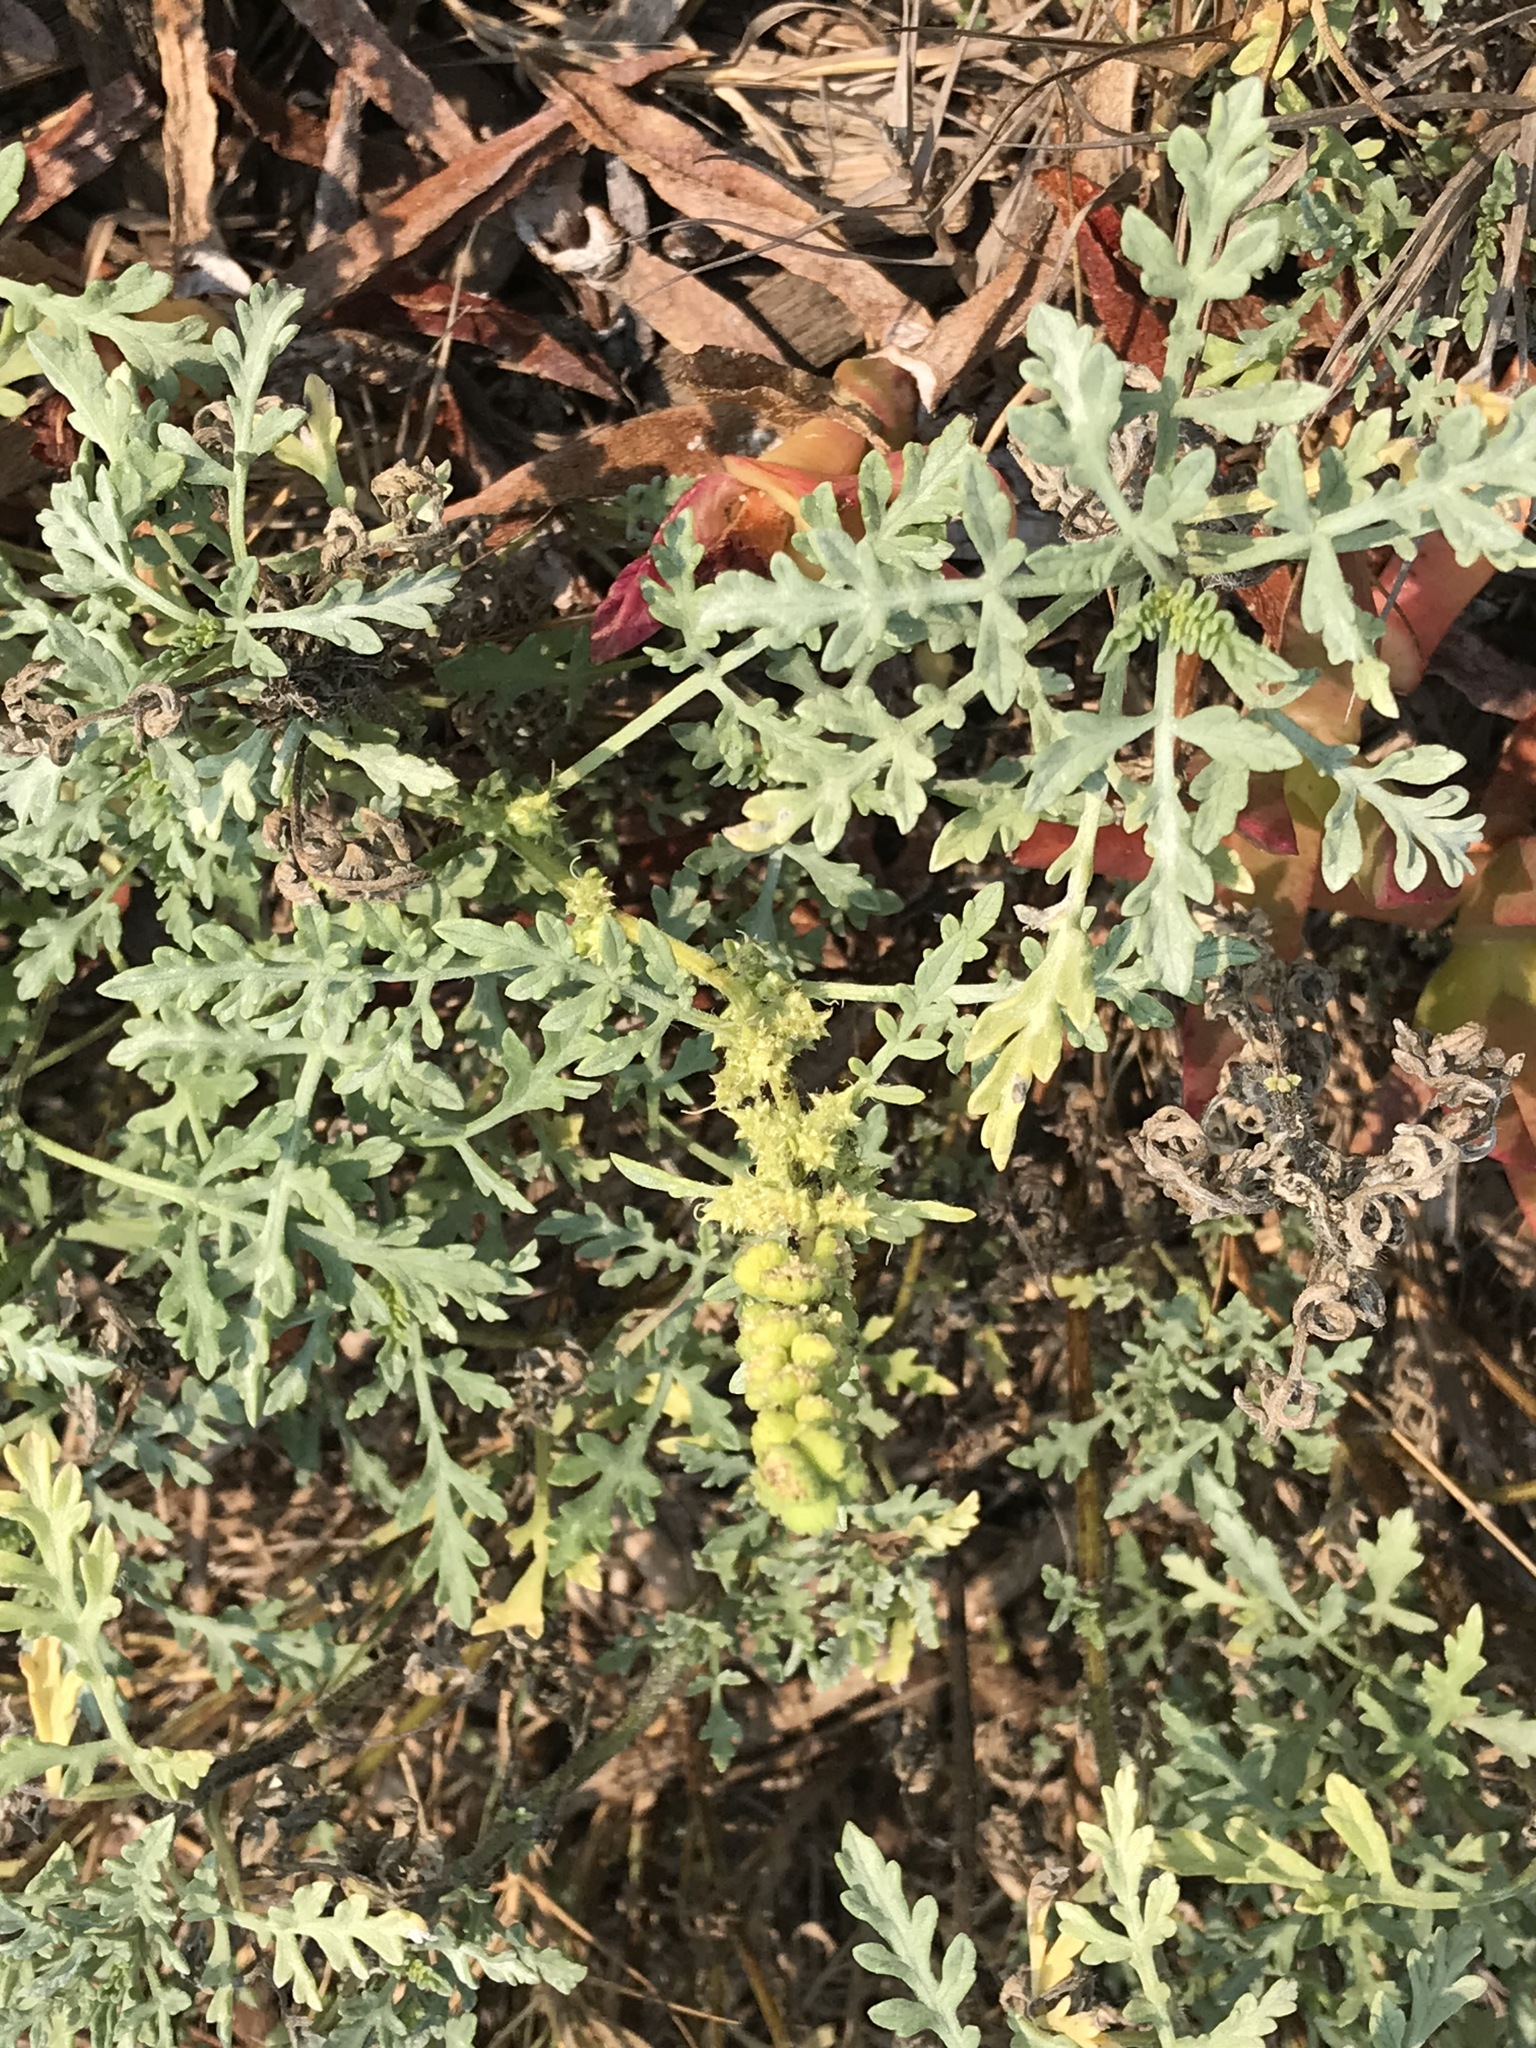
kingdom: Plantae
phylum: Tracheophyta
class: Magnoliopsida
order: Asterales
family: Asteraceae
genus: Ambrosia
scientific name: Ambrosia chamissonis
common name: Beachbur
